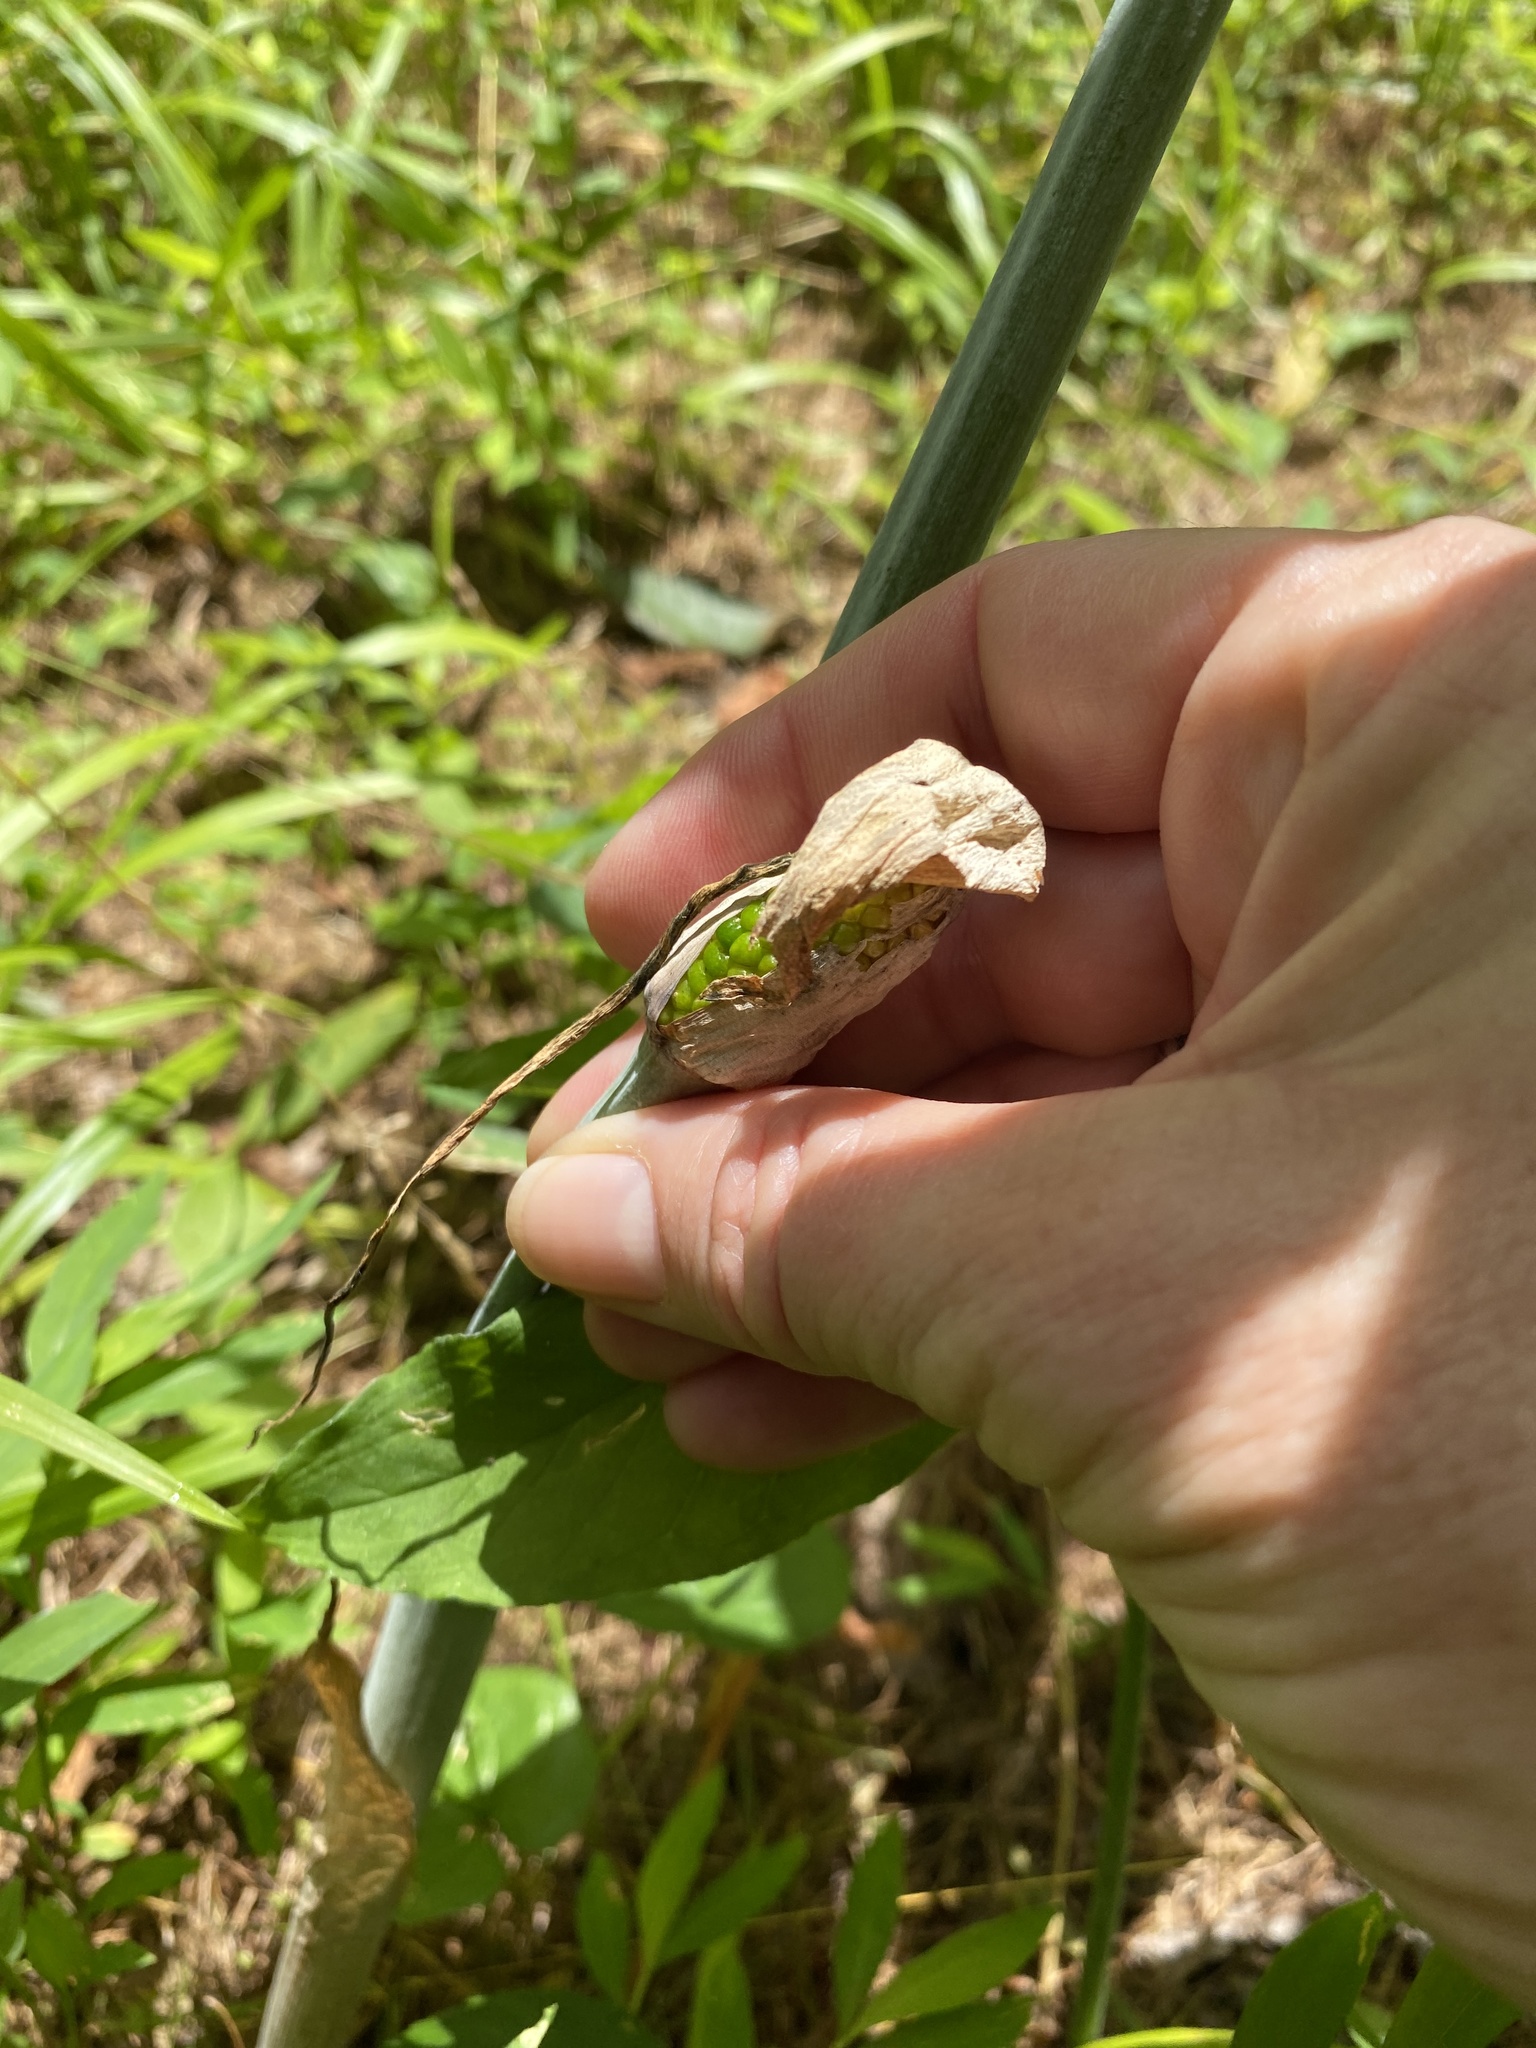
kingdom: Plantae
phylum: Tracheophyta
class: Liliopsida
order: Alismatales
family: Araceae
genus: Arisaema
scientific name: Arisaema dracontium
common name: Dragon-arum
